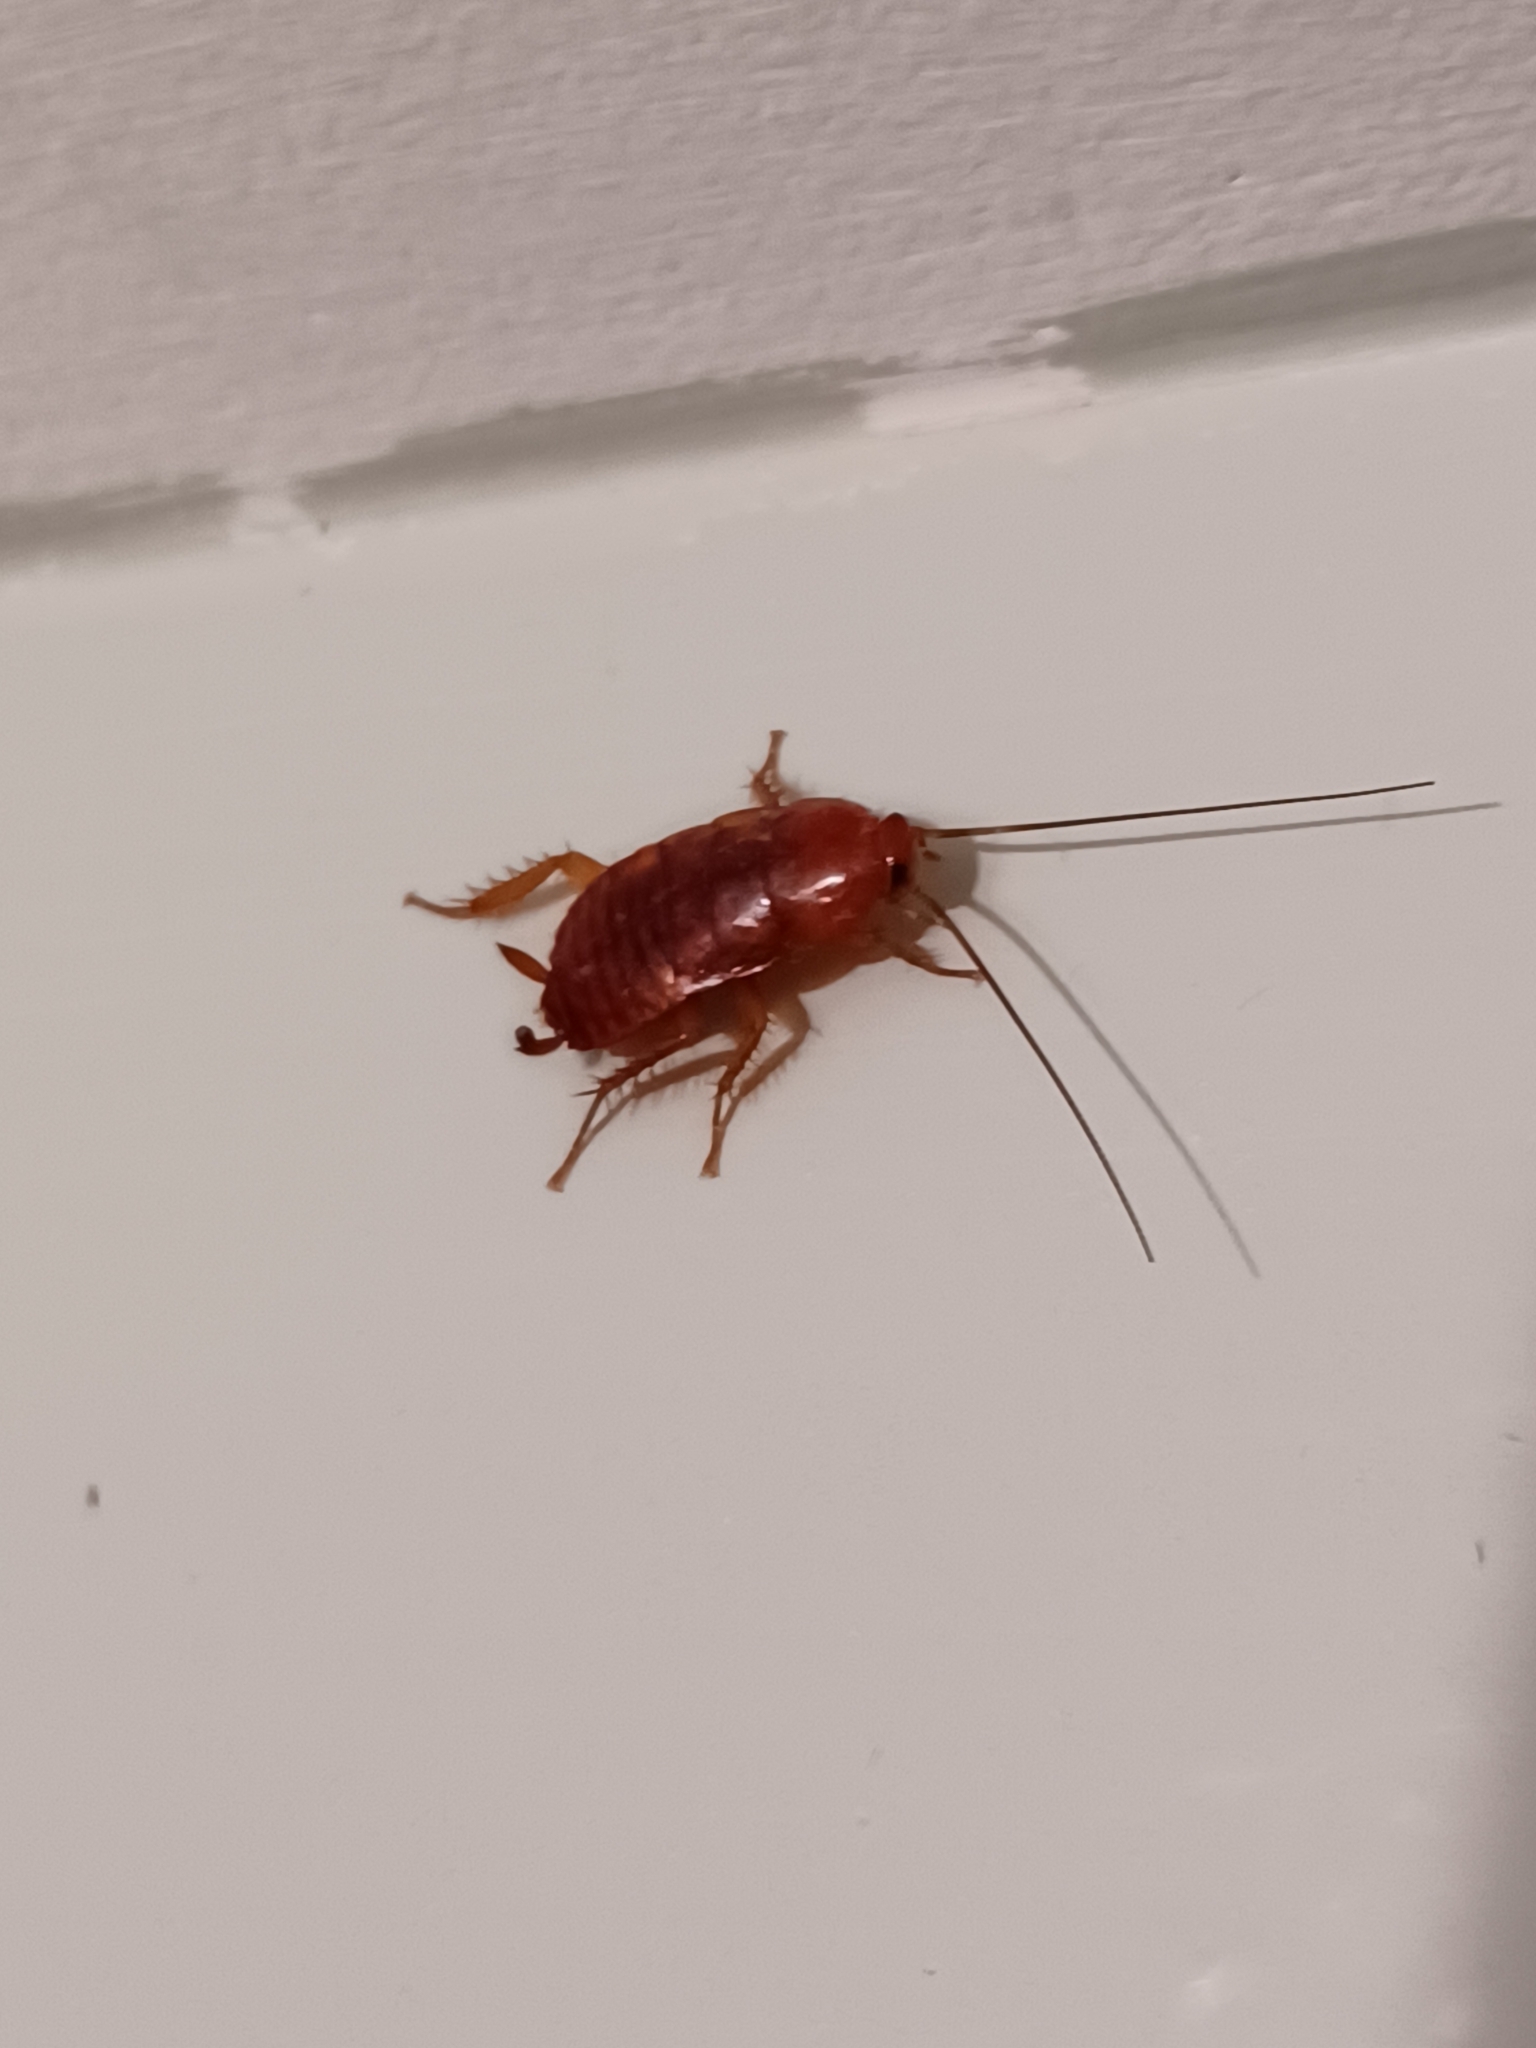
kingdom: Animalia
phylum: Arthropoda
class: Insecta
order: Blattodea
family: Blattidae
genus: Periplaneta
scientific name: Periplaneta fuliginosa
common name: Smokeybrown cockroad
